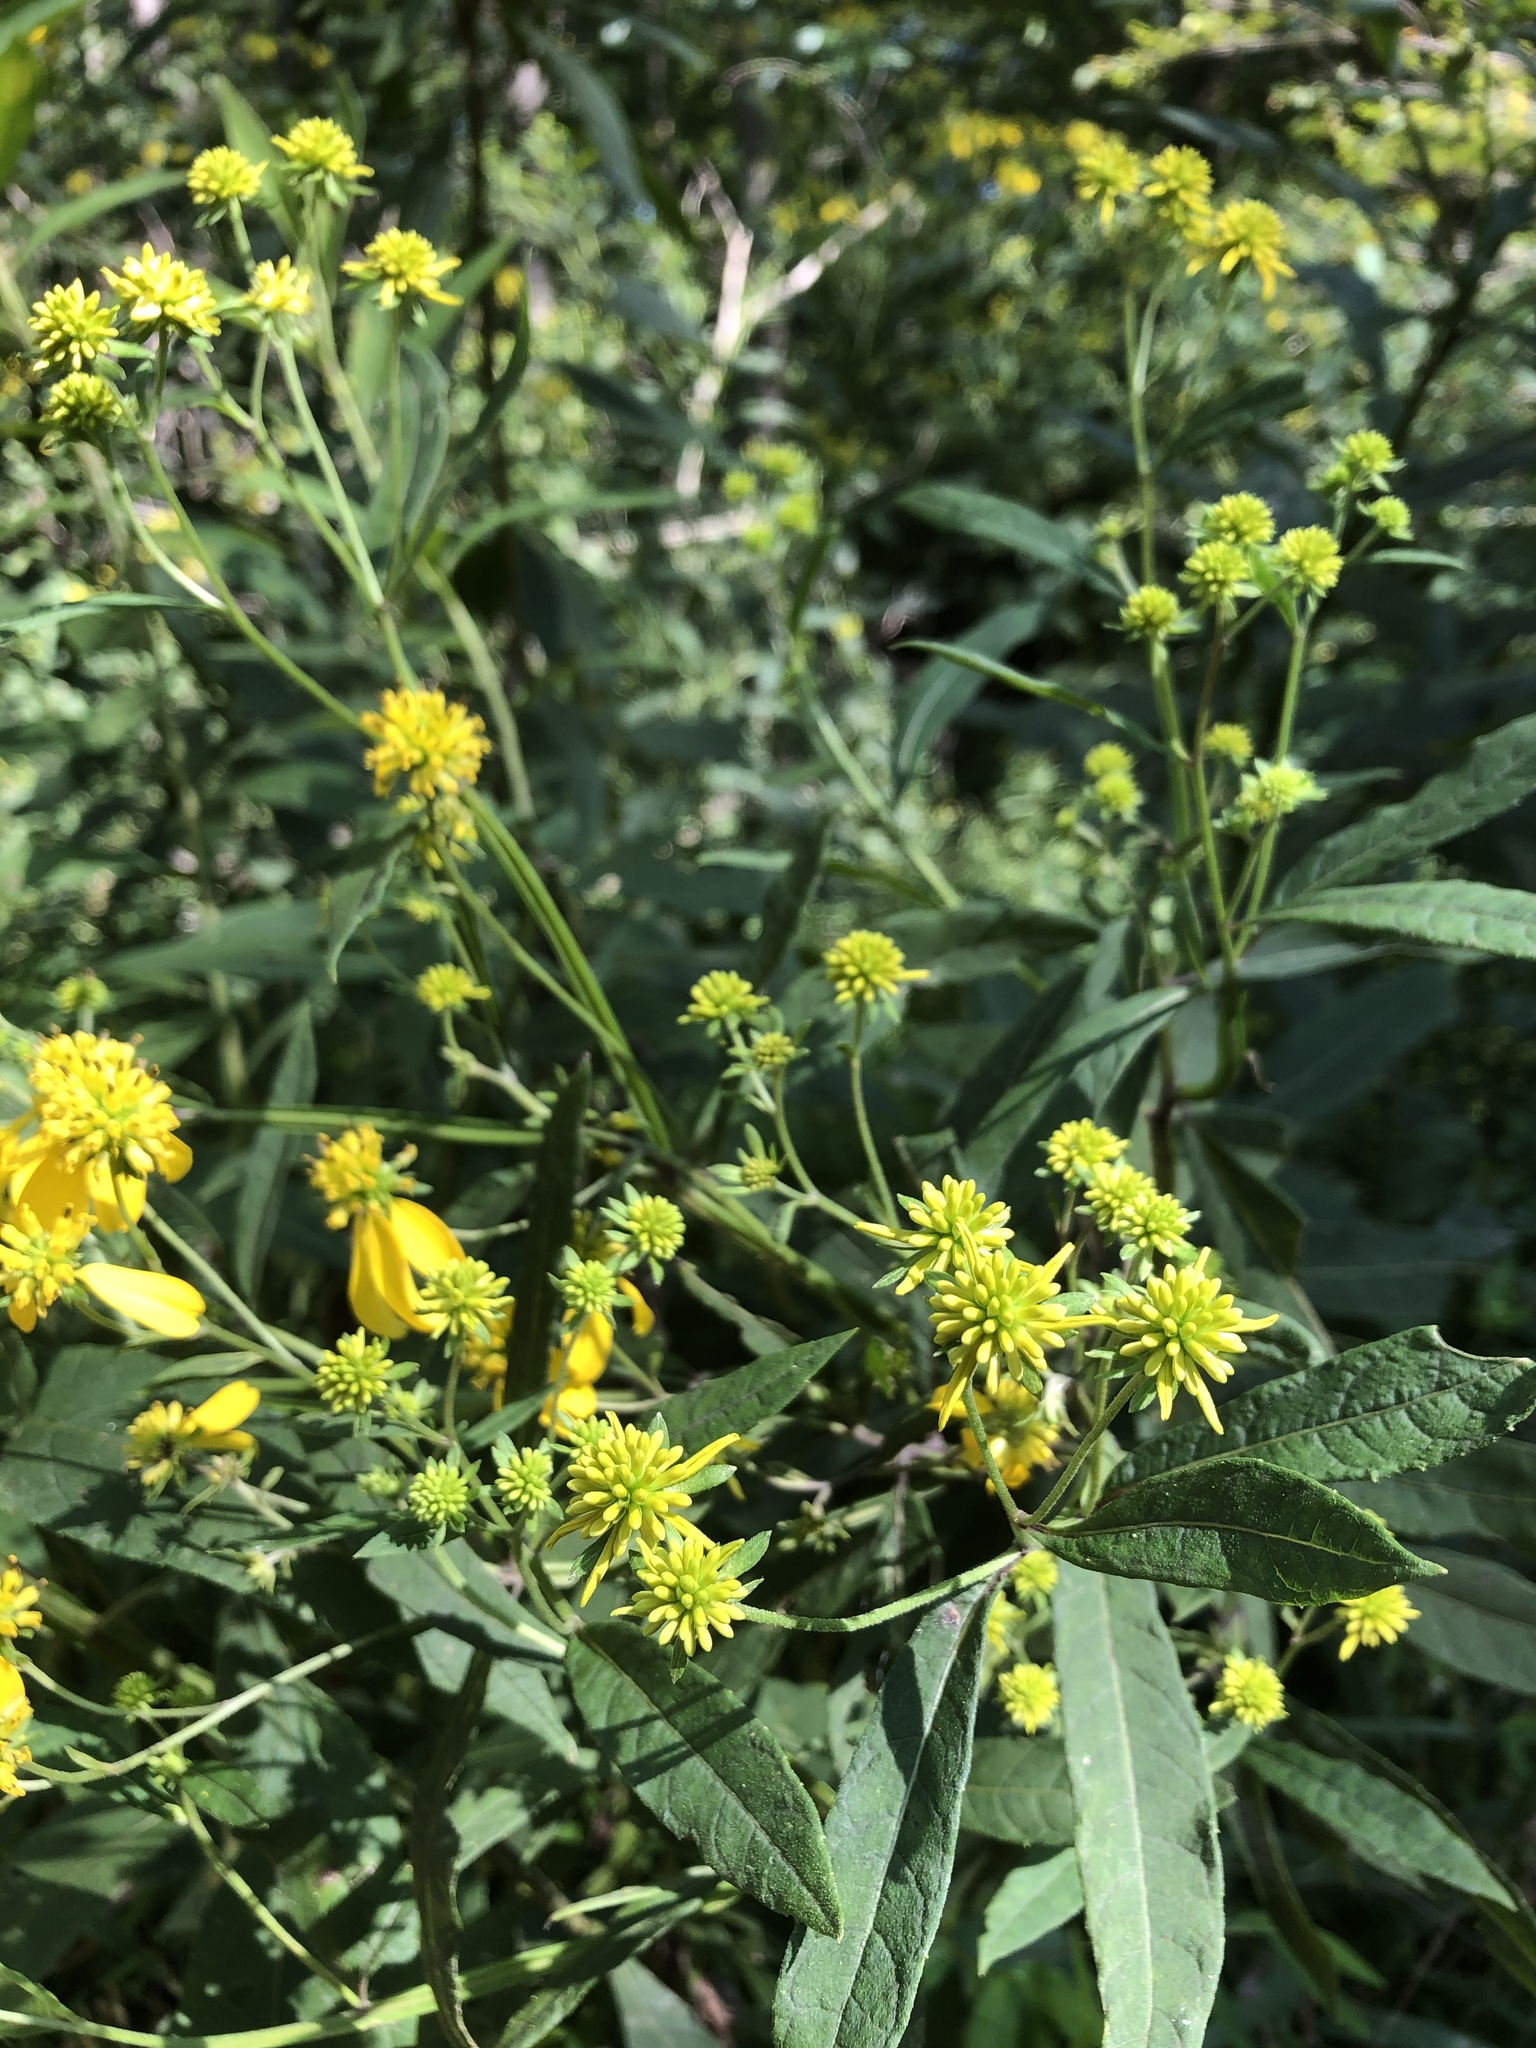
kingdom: Plantae
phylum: Tracheophyta
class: Magnoliopsida
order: Asterales
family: Asteraceae
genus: Verbesina
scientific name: Verbesina alternifolia
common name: Wingstem
